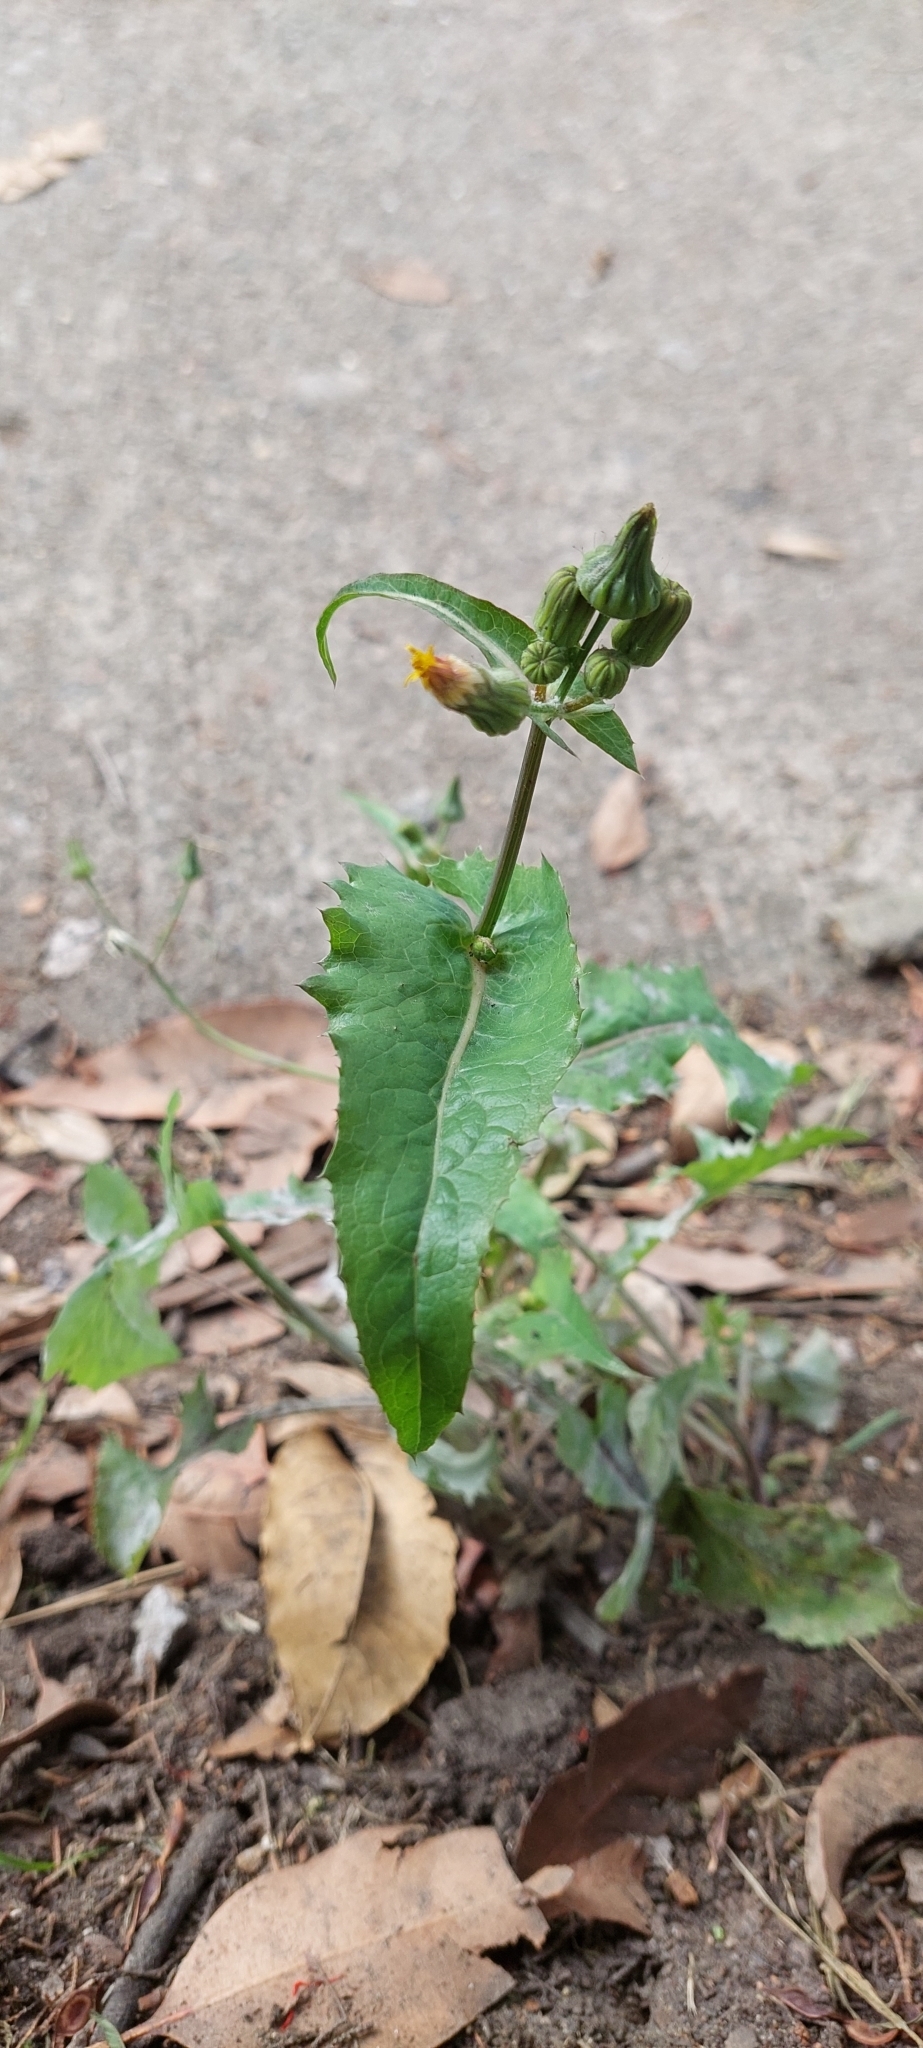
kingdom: Plantae
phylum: Tracheophyta
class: Magnoliopsida
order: Asterales
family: Asteraceae
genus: Sonchus
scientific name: Sonchus oleraceus
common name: Common sowthistle
